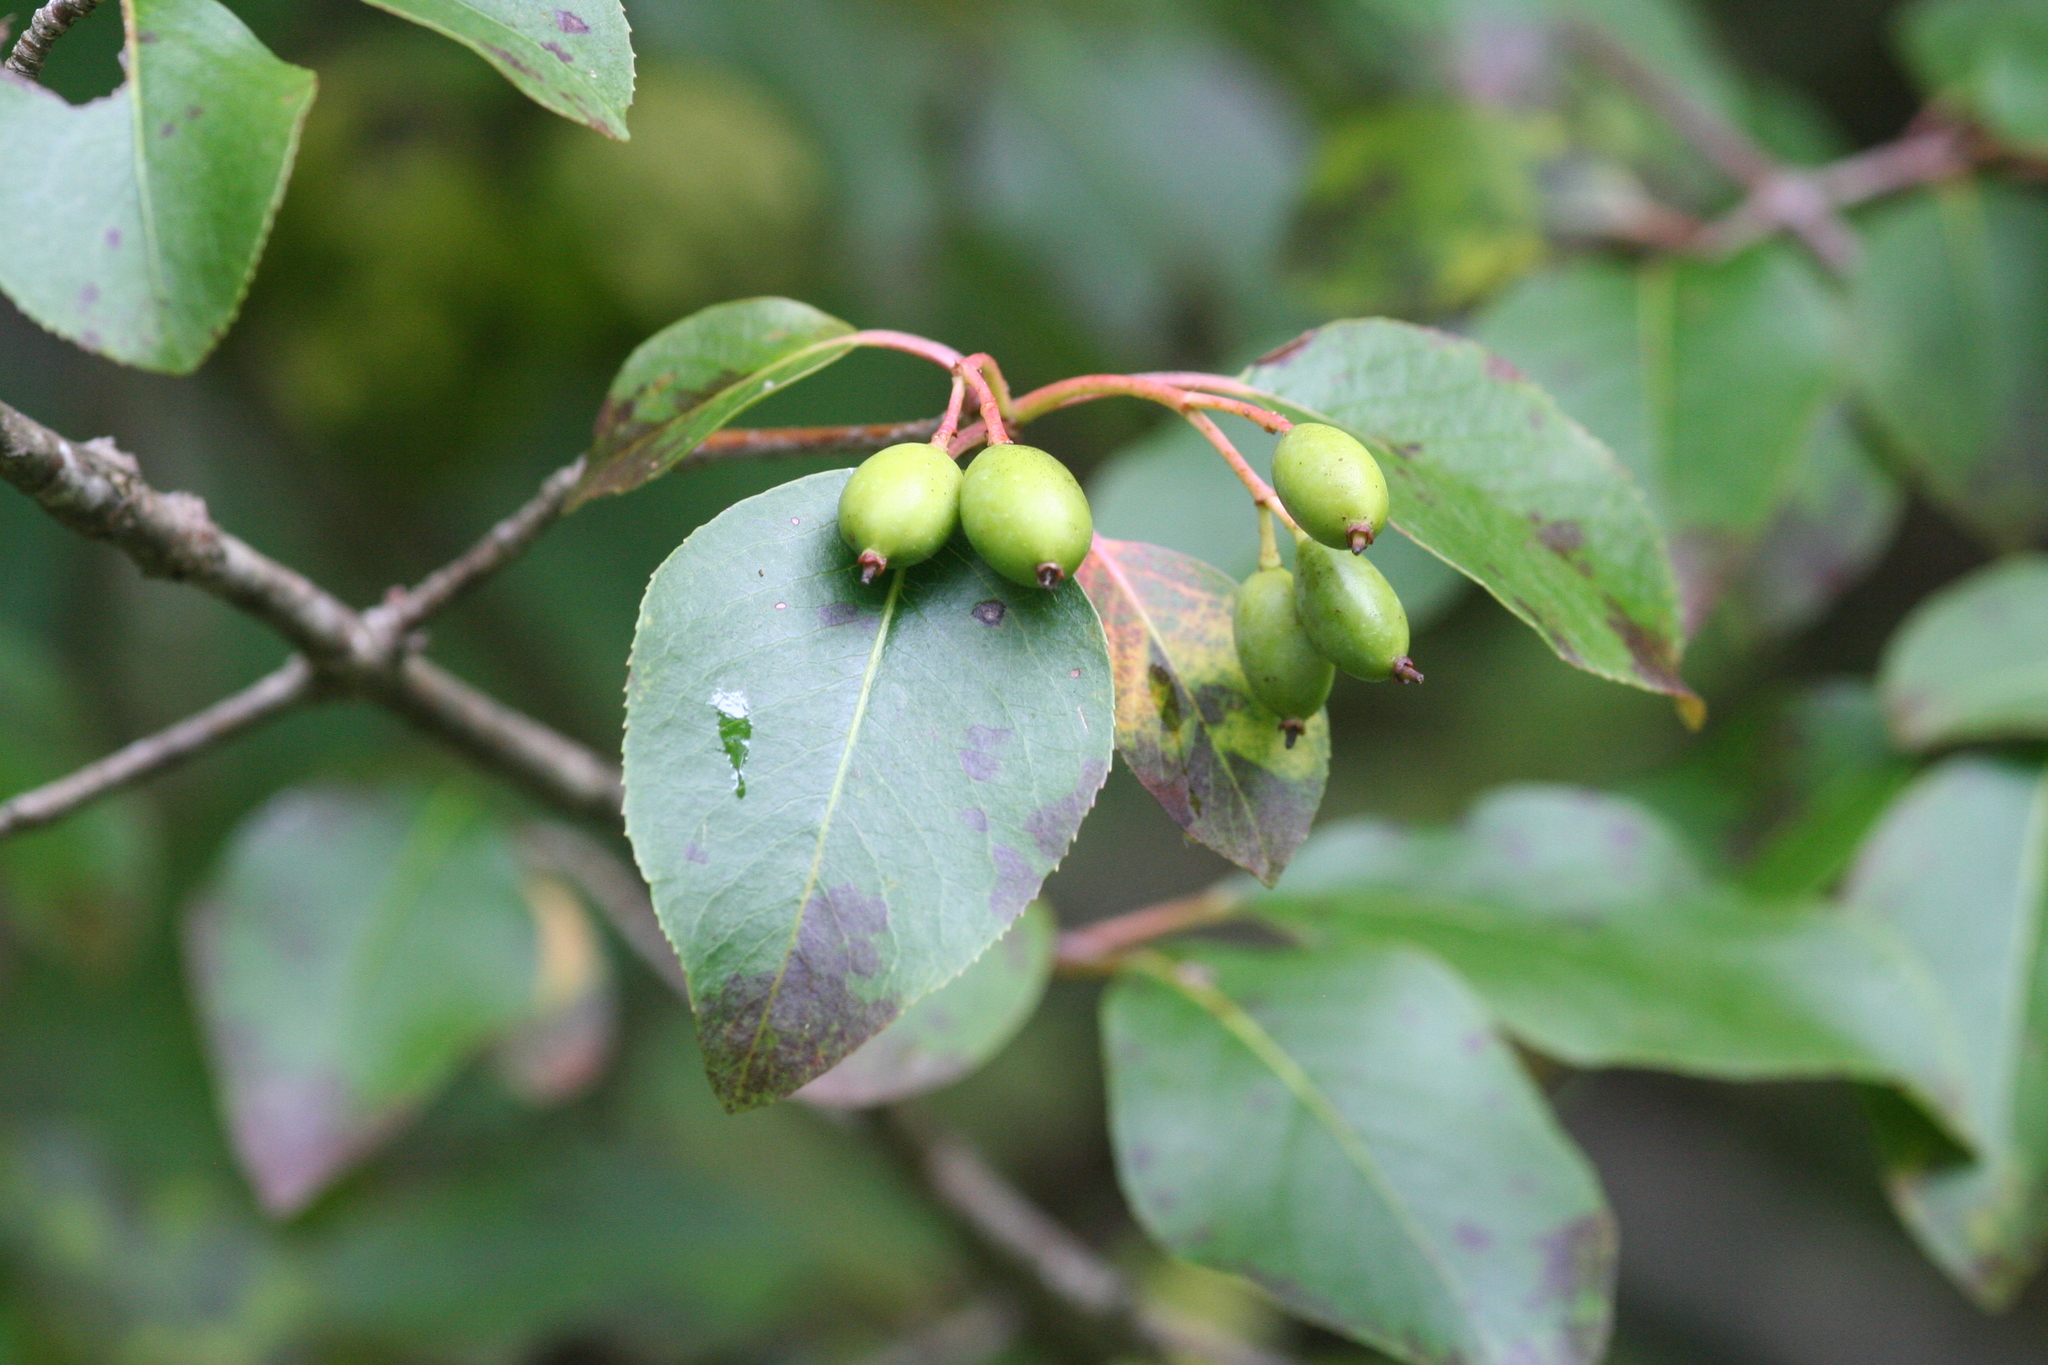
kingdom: Plantae
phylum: Tracheophyta
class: Magnoliopsida
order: Dipsacales
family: Viburnaceae
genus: Viburnum
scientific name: Viburnum prunifolium
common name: Black haw
